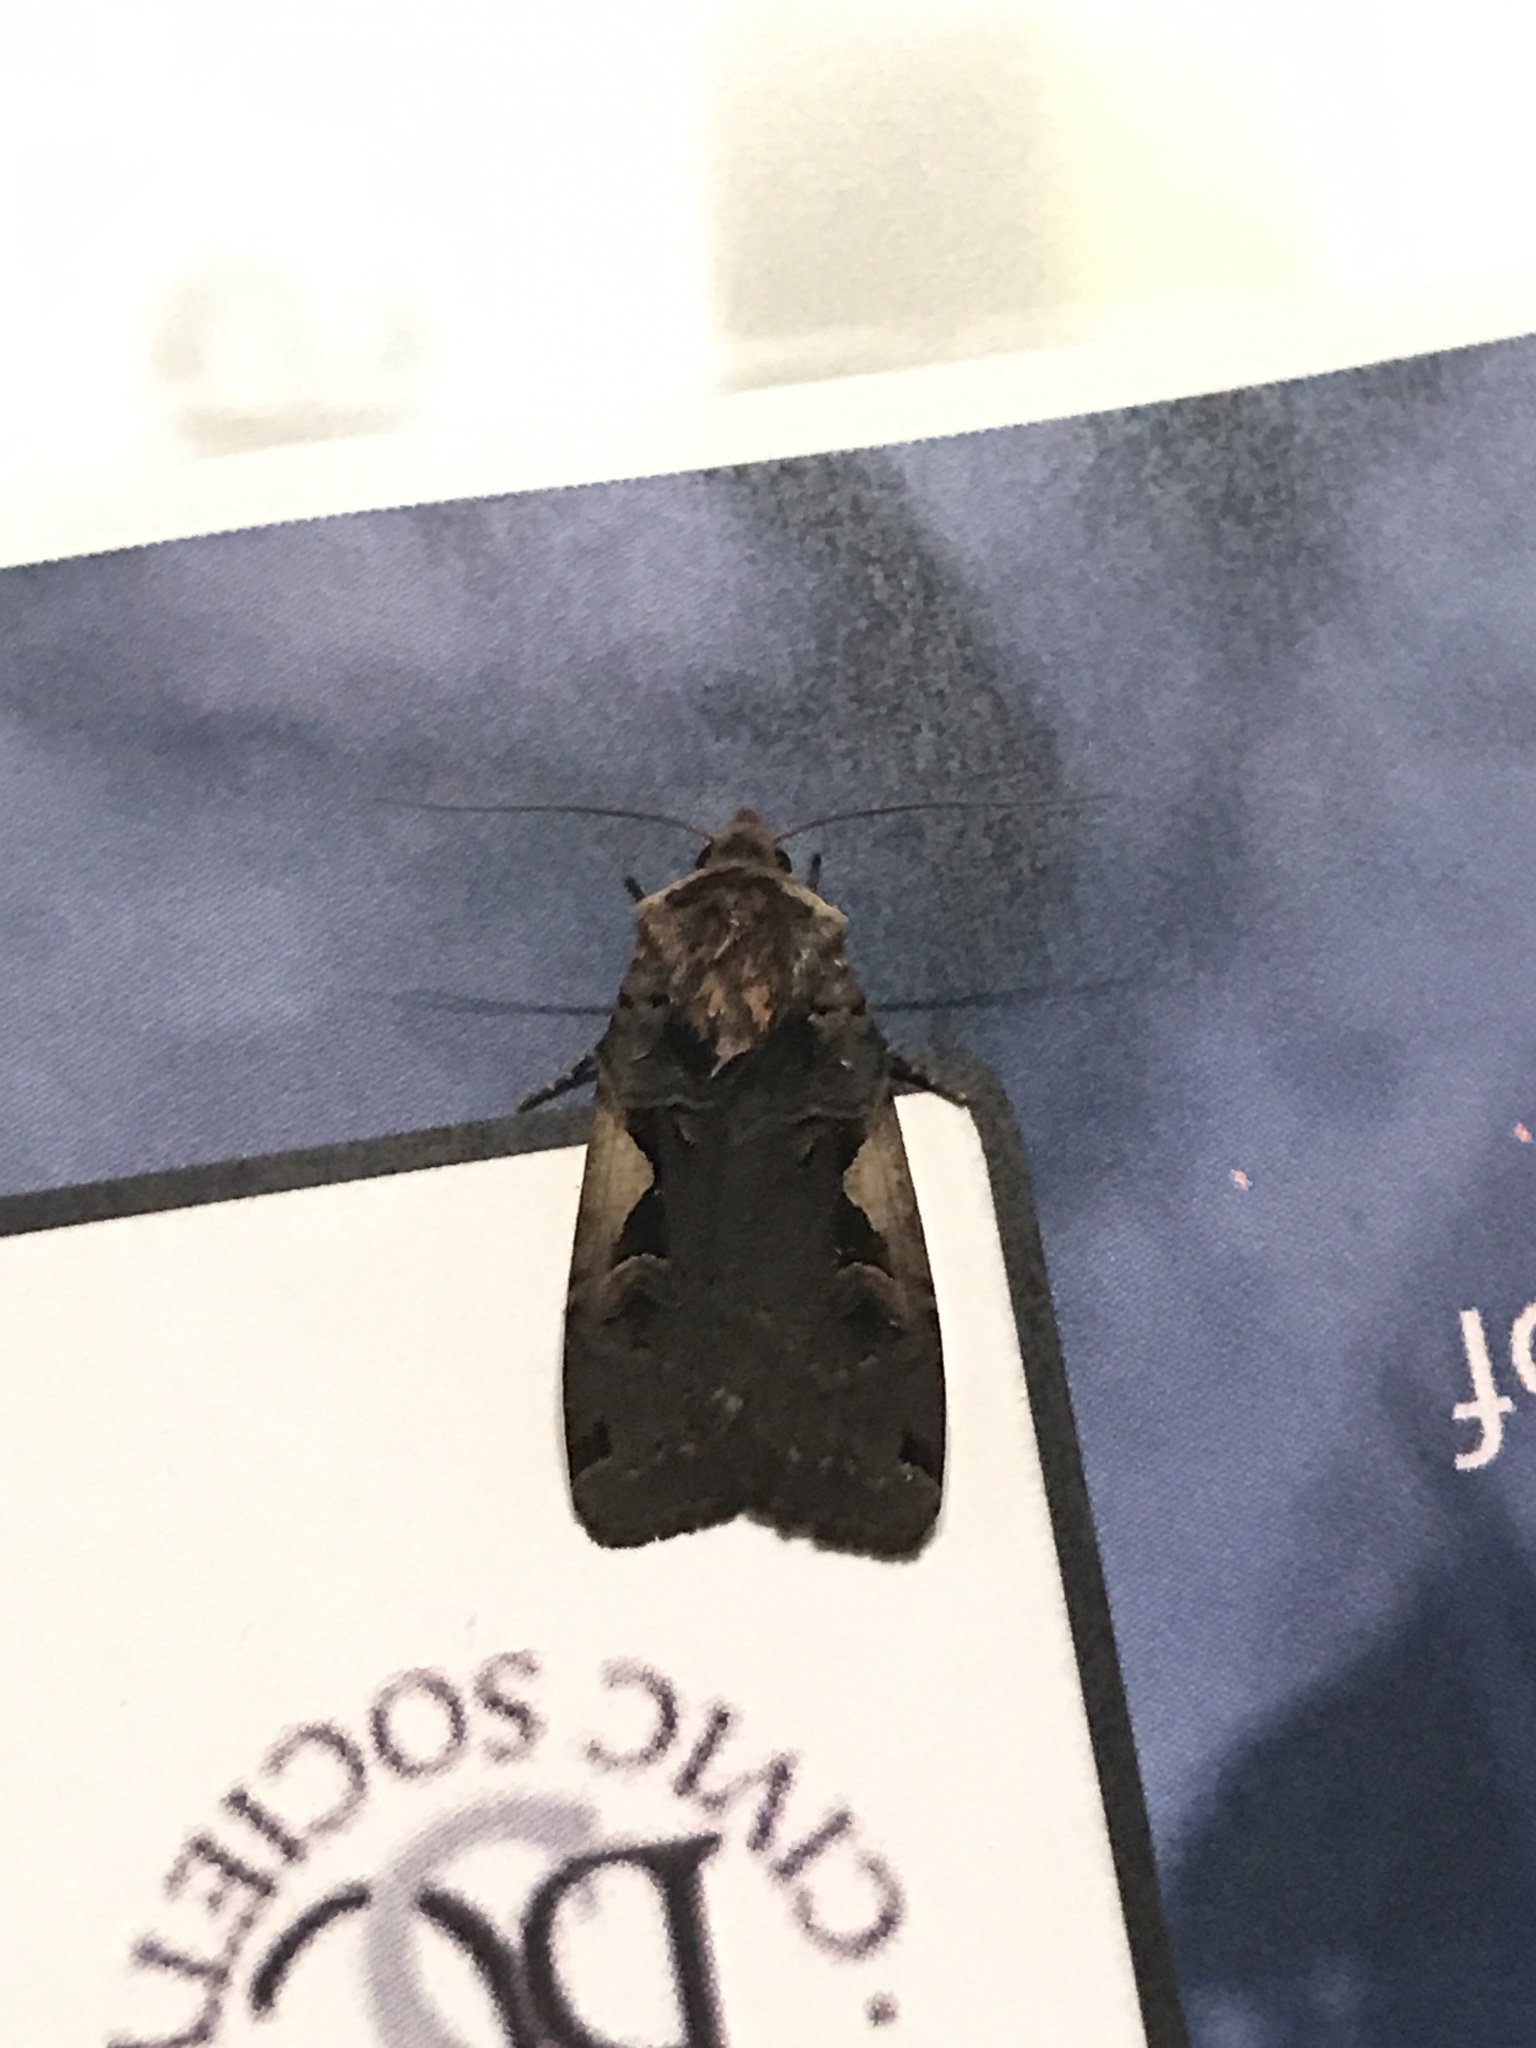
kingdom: Animalia
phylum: Arthropoda
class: Insecta
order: Lepidoptera
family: Noctuidae
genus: Xestia
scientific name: Xestia c-nigrum
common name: Setaceous hebrew character
